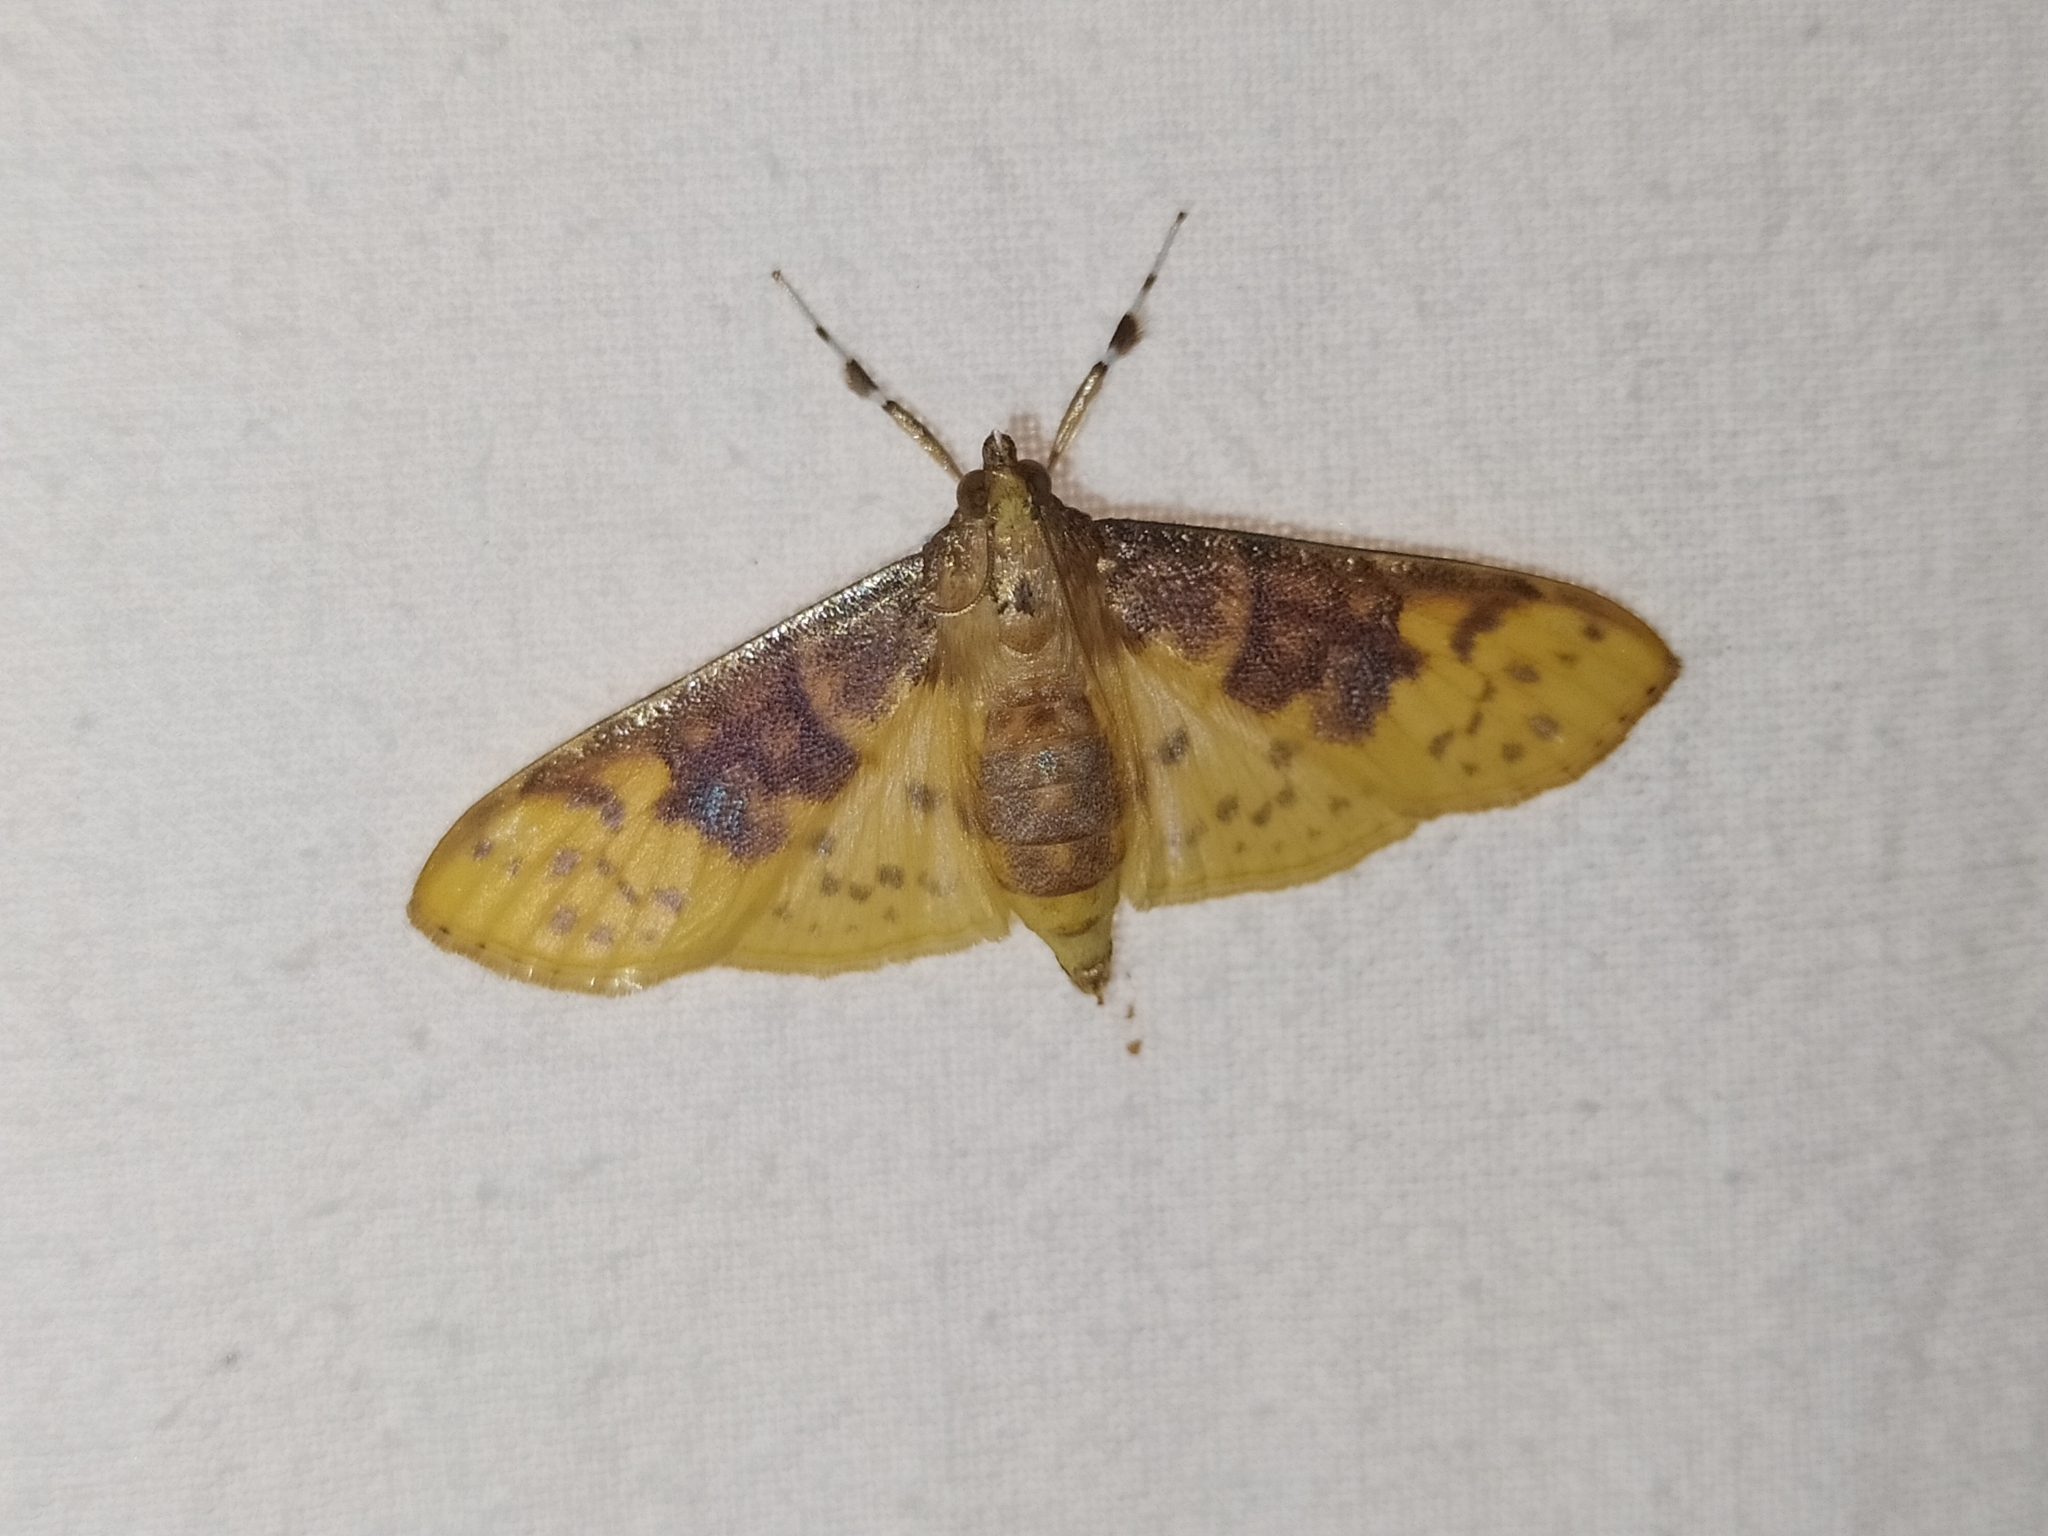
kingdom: Animalia
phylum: Arthropoda
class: Insecta
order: Lepidoptera
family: Crambidae
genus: Ghesquierellana
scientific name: Ghesquierellana hirtusalis
